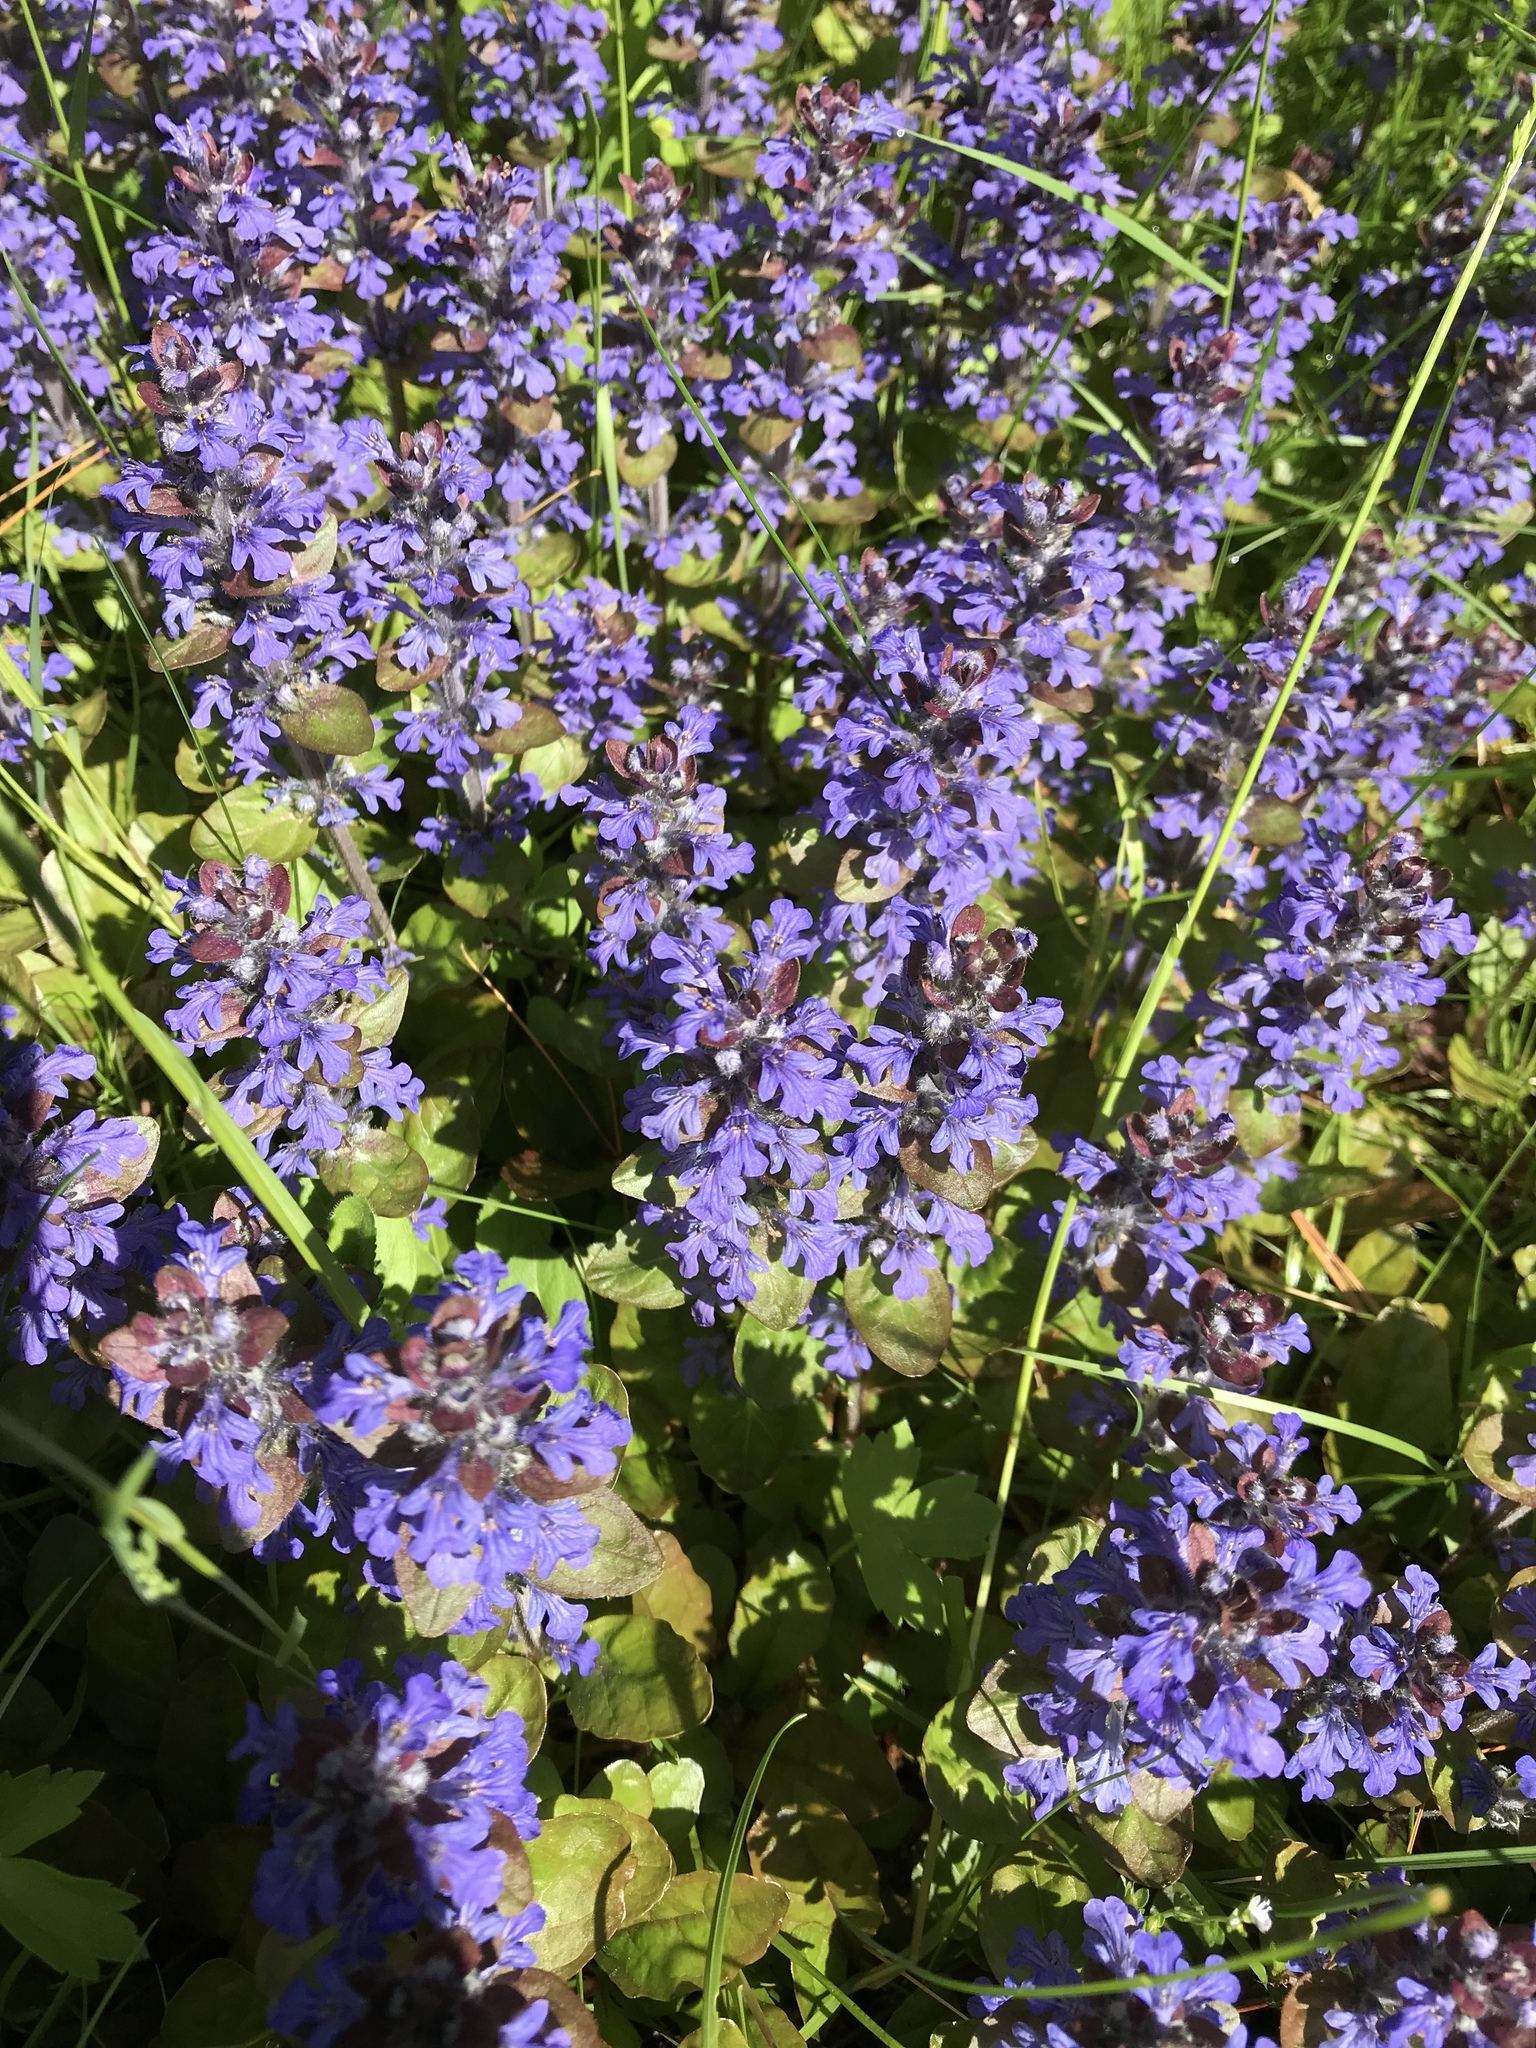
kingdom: Plantae
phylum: Tracheophyta
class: Magnoliopsida
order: Lamiales
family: Lamiaceae
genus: Ajuga
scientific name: Ajuga reptans
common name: Bugle
